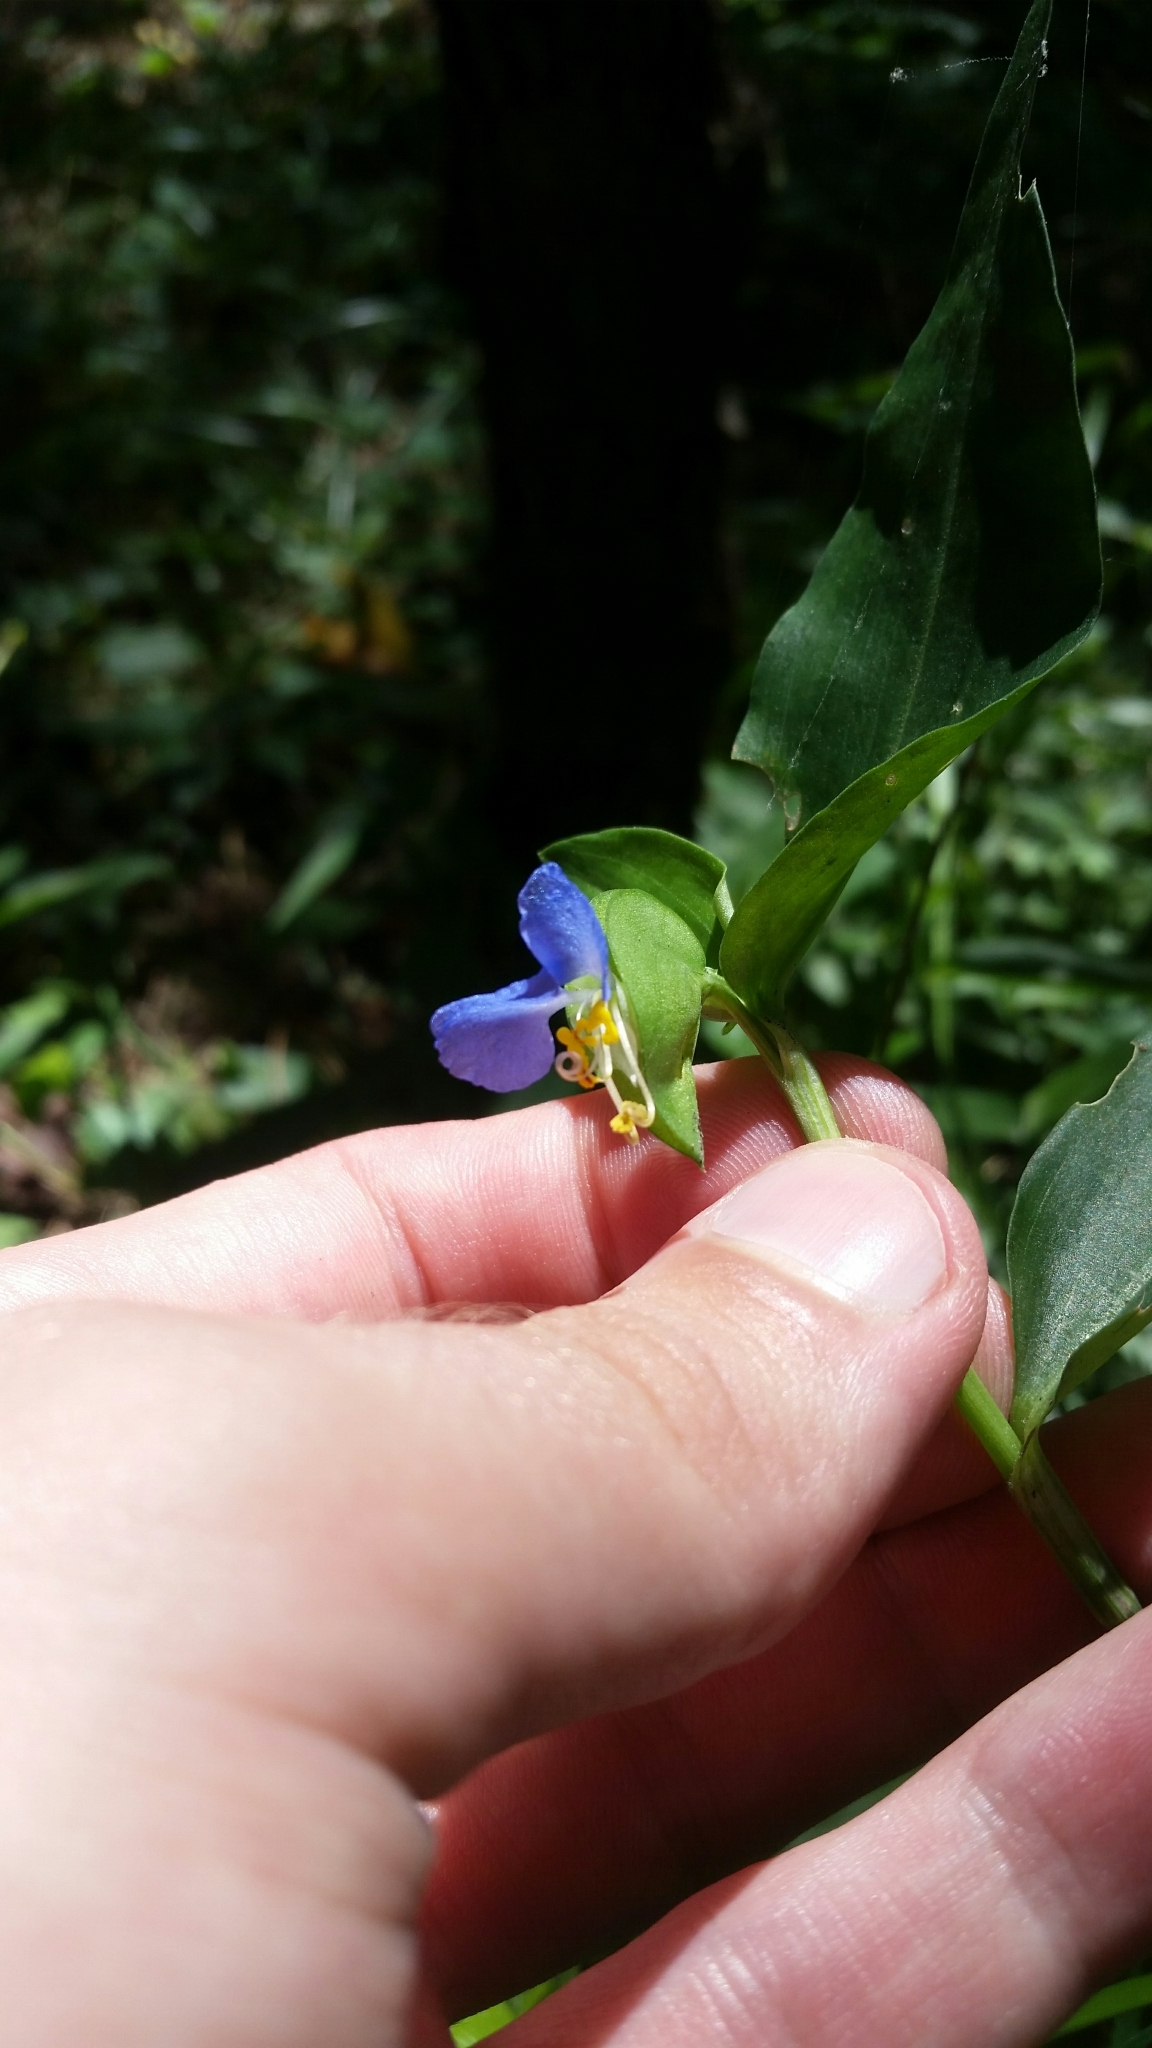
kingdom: Plantae
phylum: Tracheophyta
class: Liliopsida
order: Commelinales
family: Commelinaceae
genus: Commelina
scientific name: Commelina communis
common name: Asiatic dayflower
